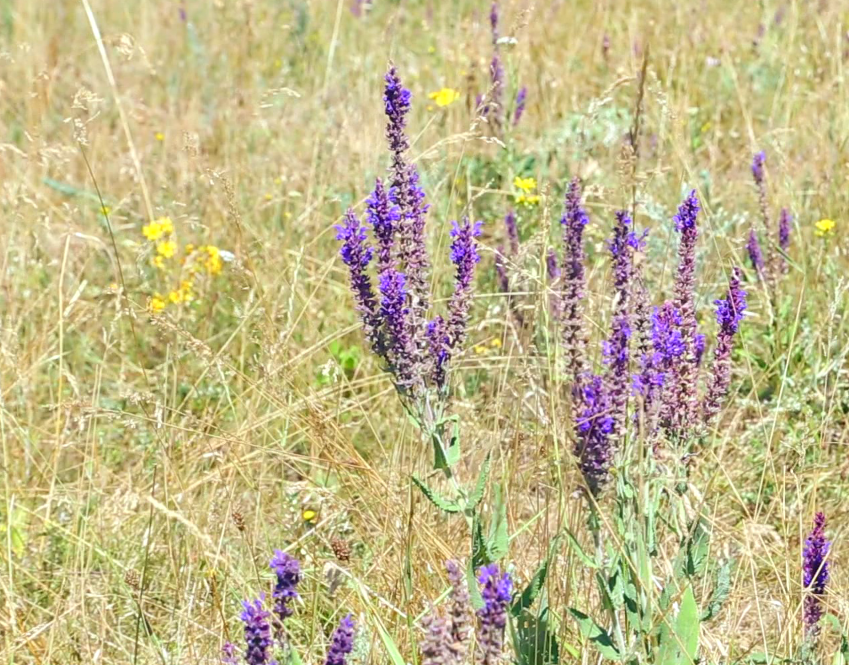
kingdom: Plantae
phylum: Tracheophyta
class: Magnoliopsida
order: Lamiales
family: Lamiaceae
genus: Salvia
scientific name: Salvia nemorosa
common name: Balkan clary
